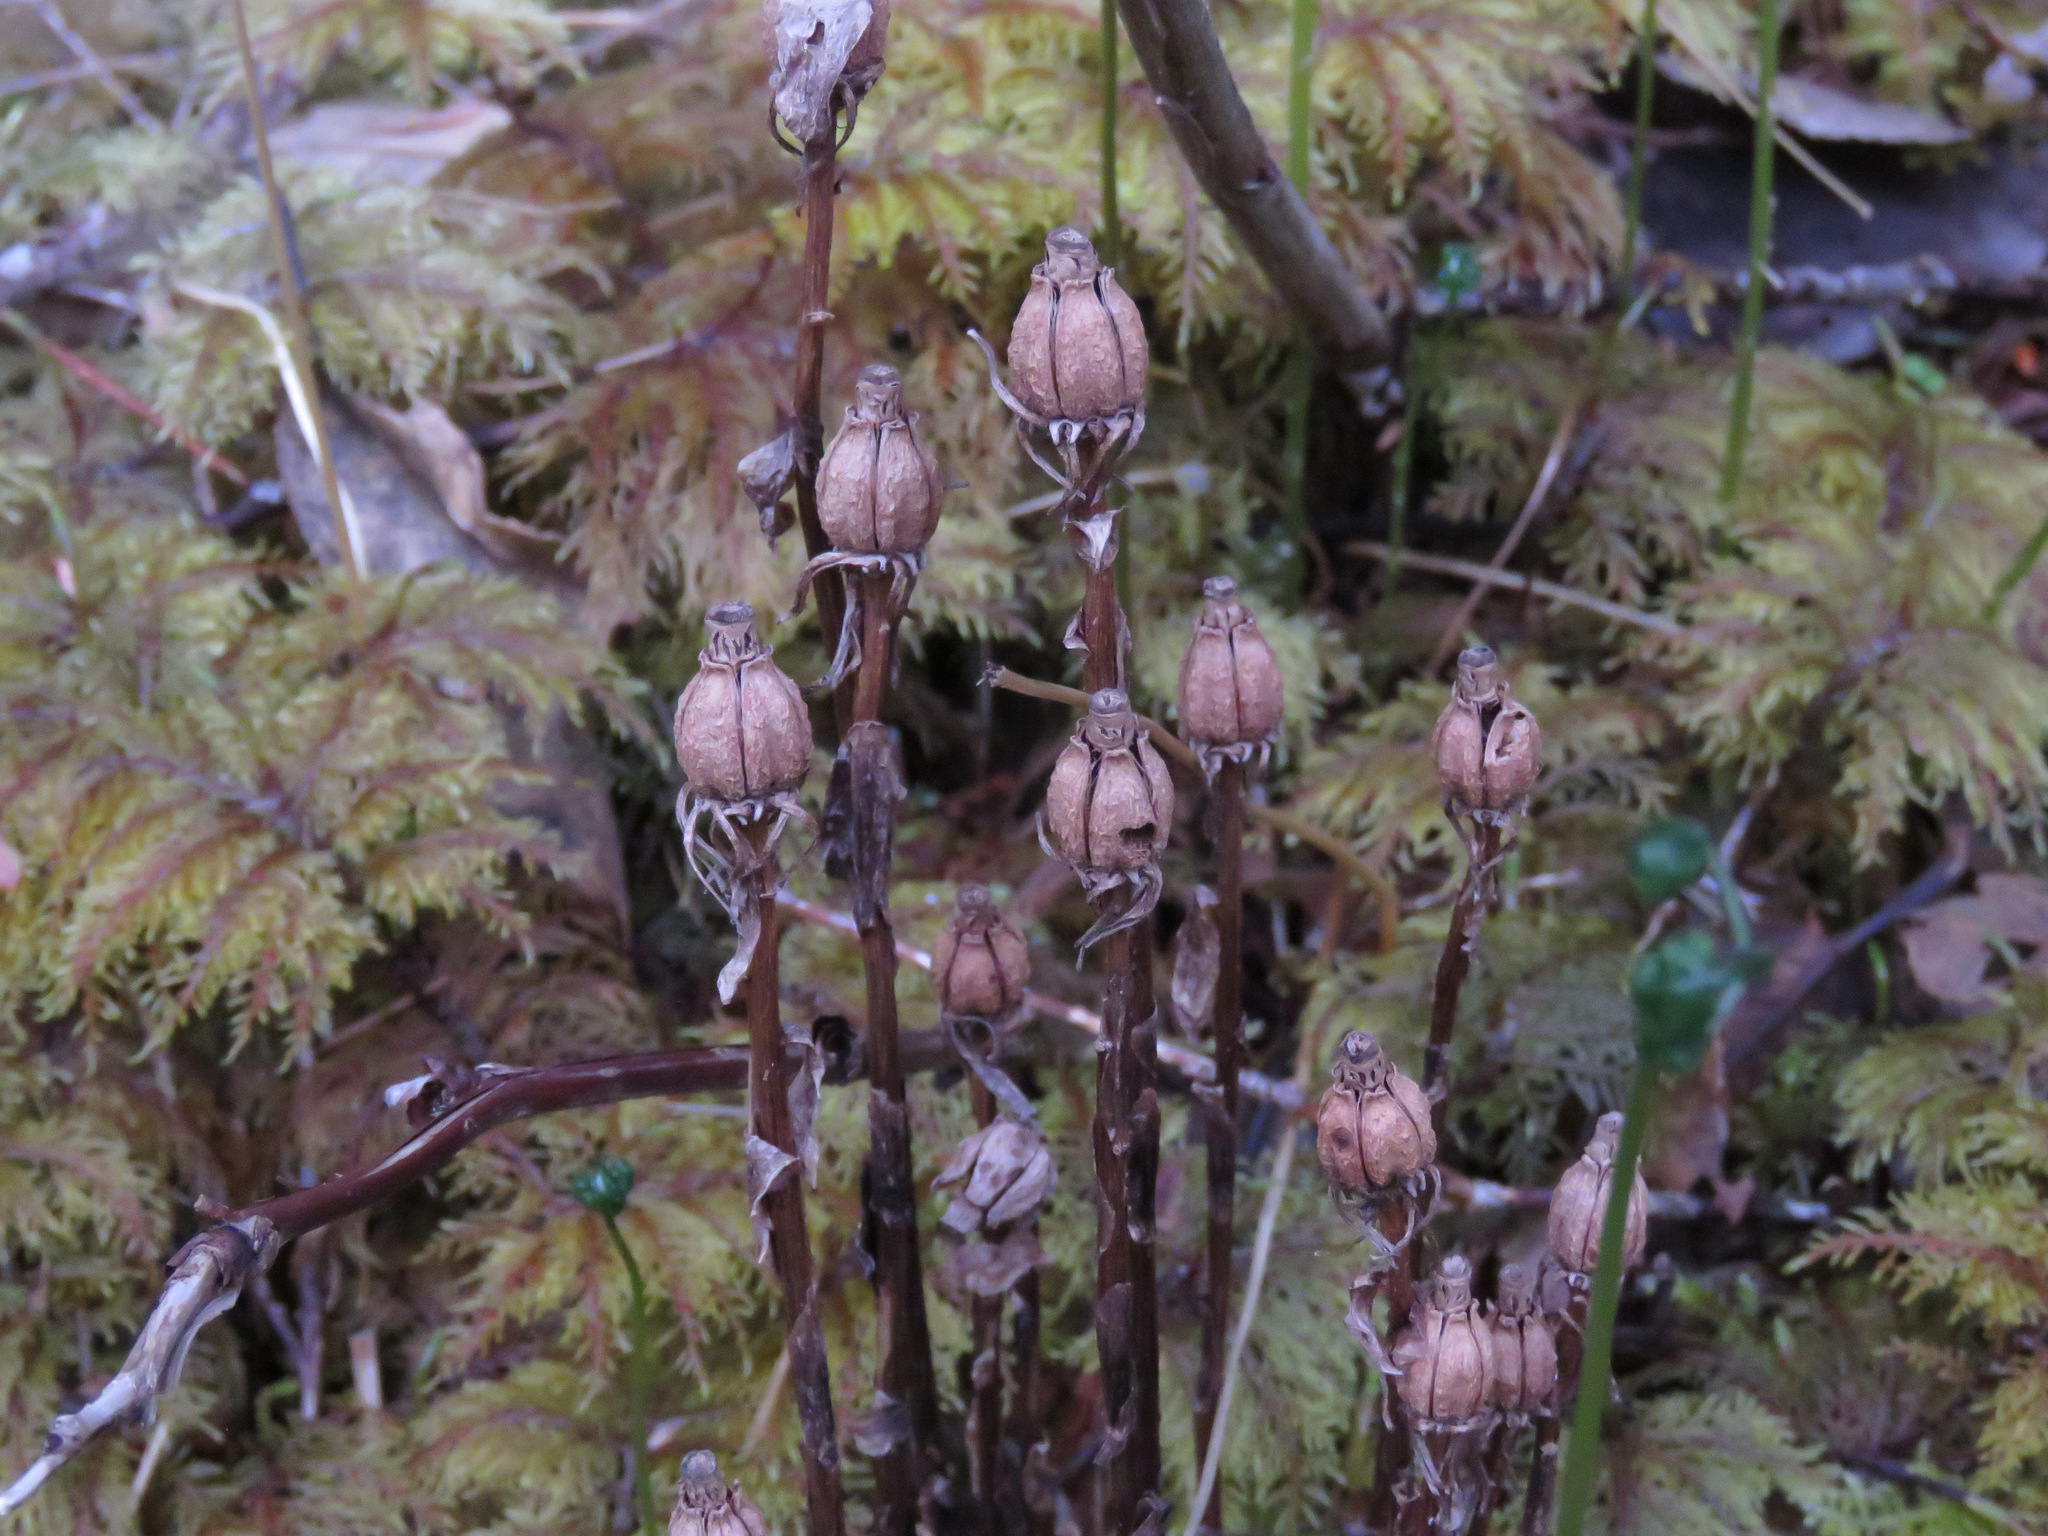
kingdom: Plantae
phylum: Tracheophyta
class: Magnoliopsida
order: Ericales
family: Ericaceae
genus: Monotropa
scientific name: Monotropa uniflora
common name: Convulsion root
